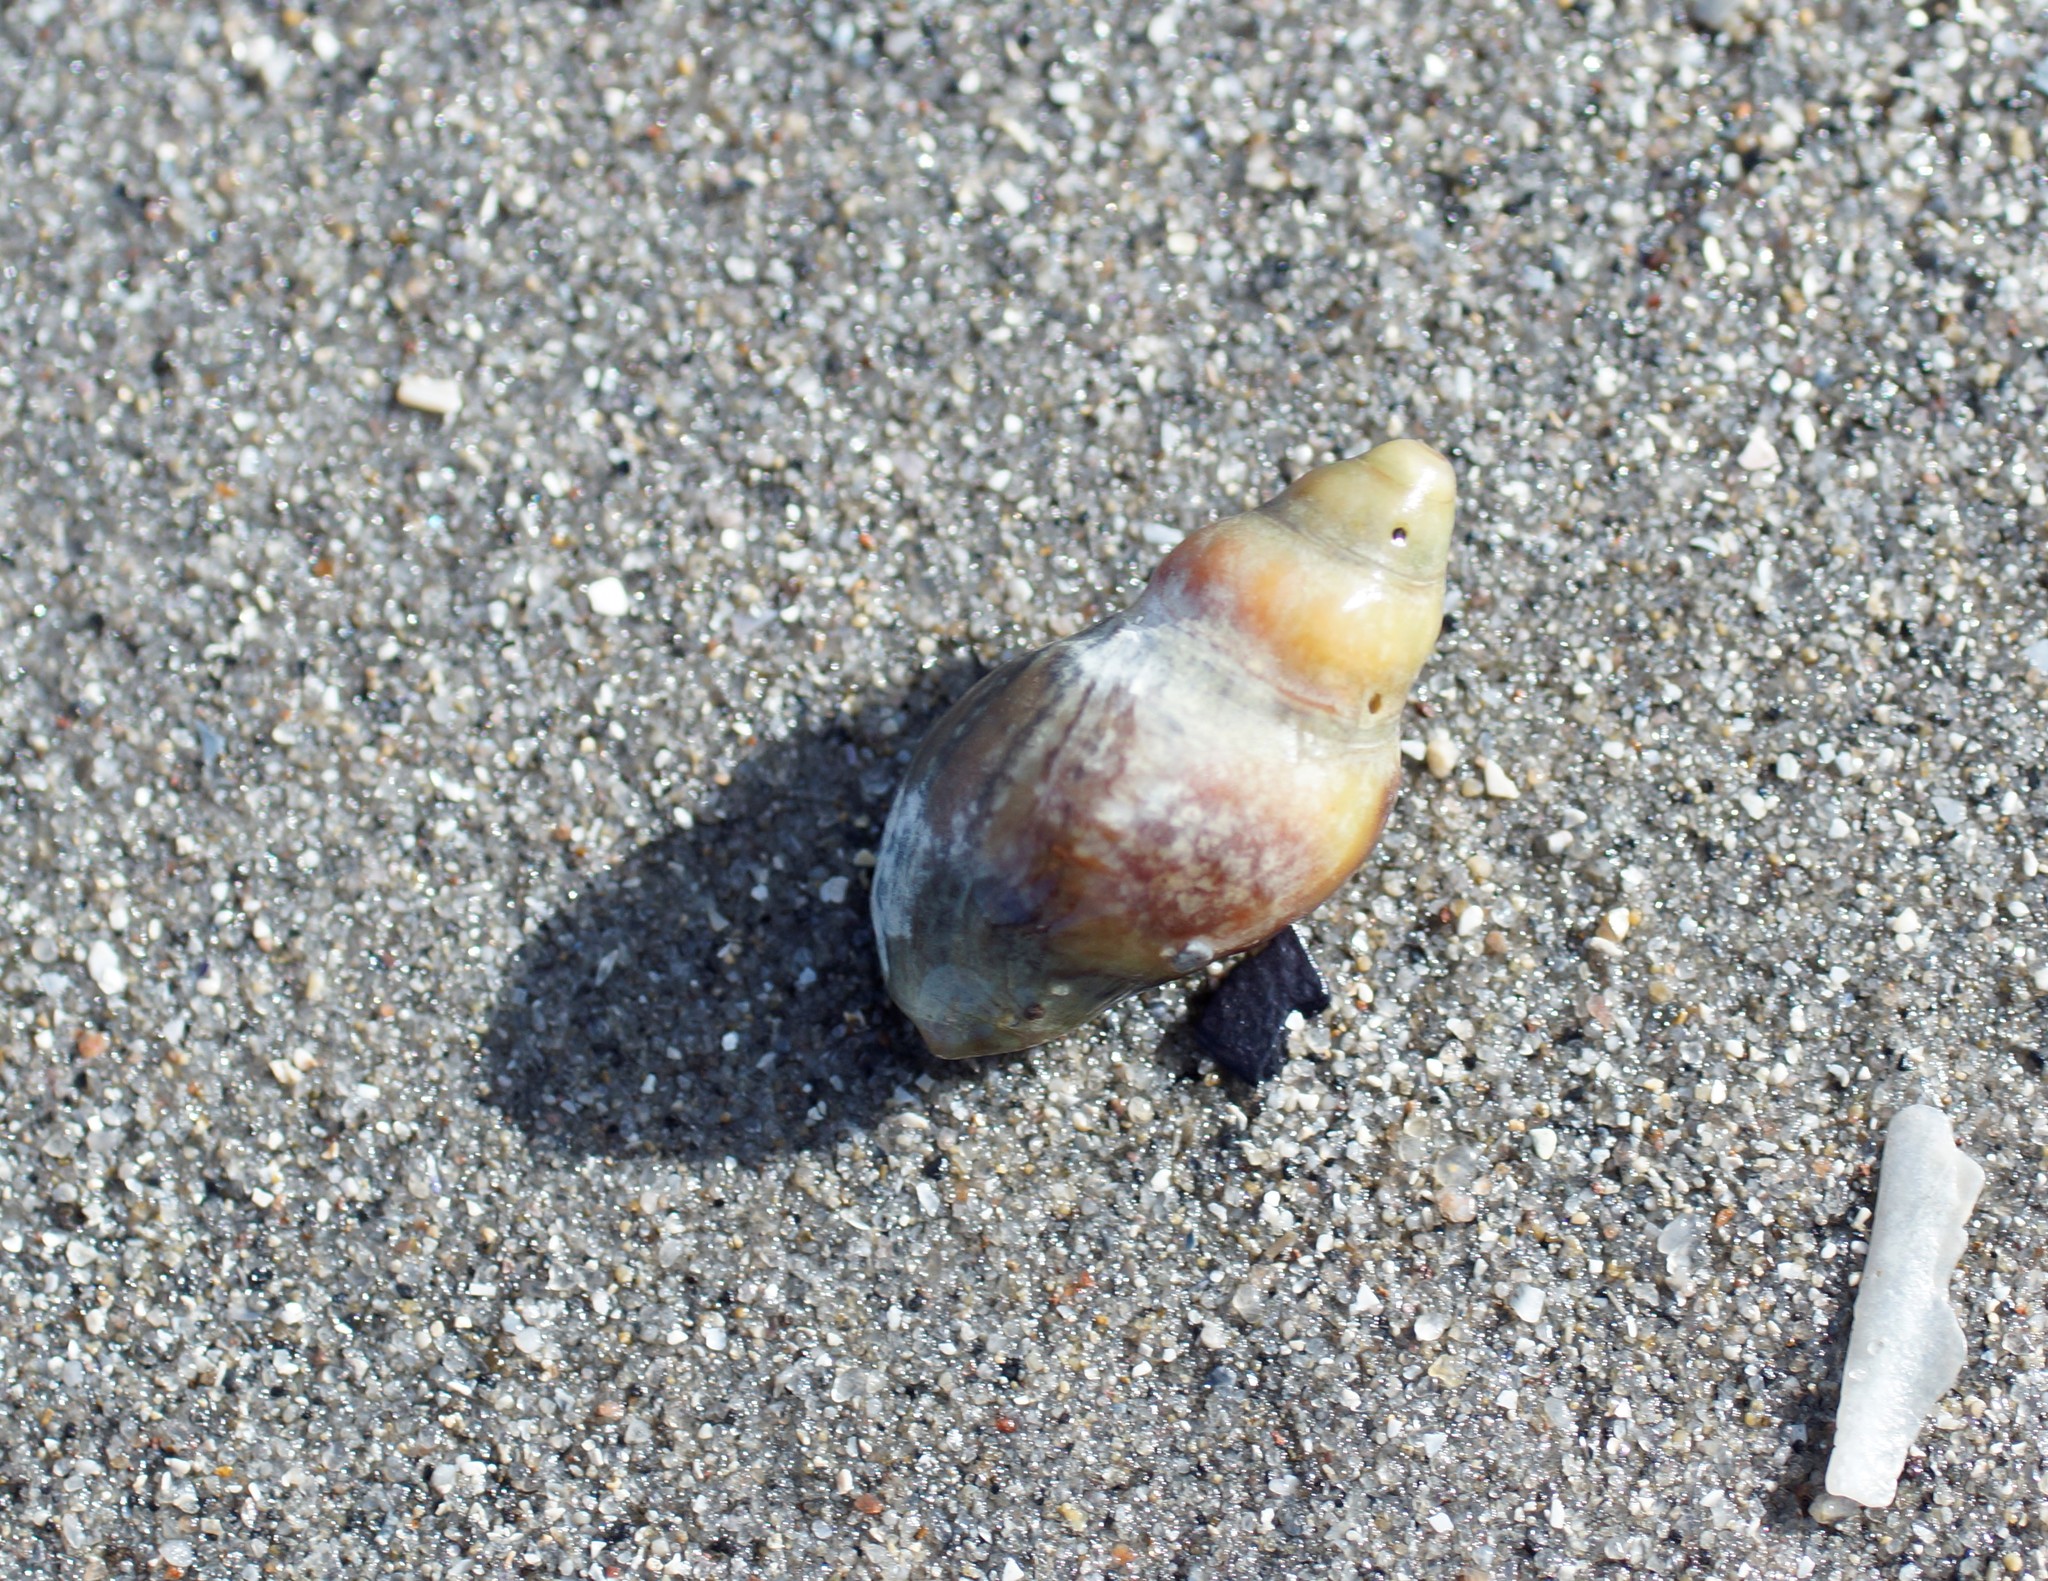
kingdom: Animalia
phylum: Mollusca
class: Gastropoda
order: Neogastropoda
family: Cominellidae
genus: Cominella
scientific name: Cominella lineolata
